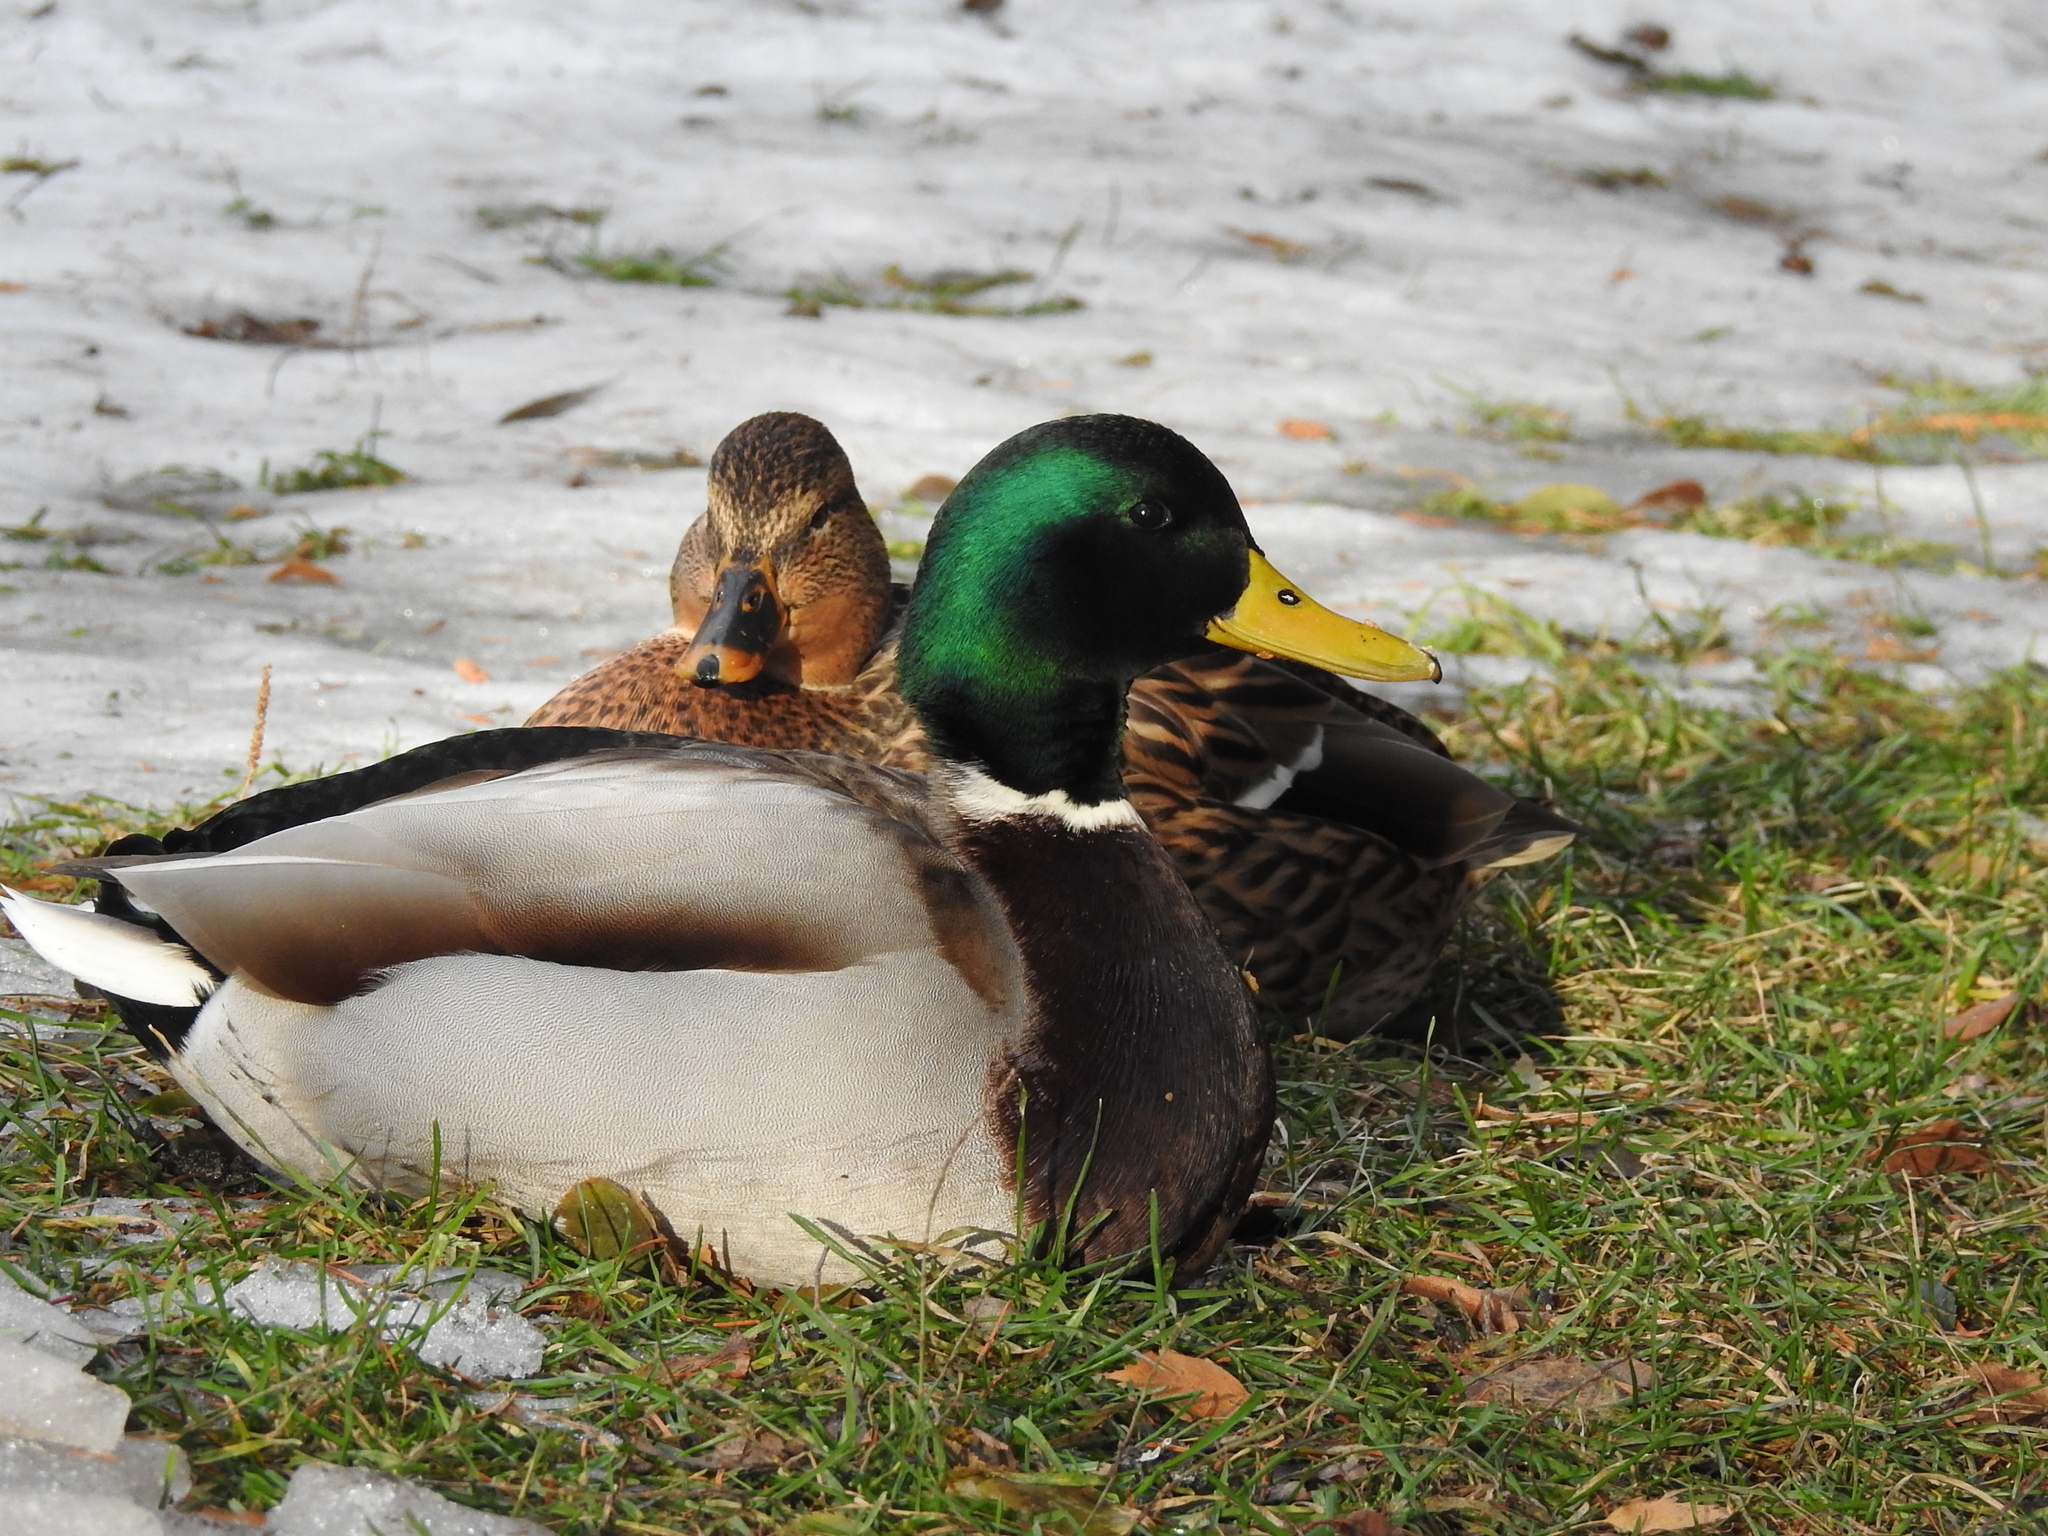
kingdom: Animalia
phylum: Chordata
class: Aves
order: Anseriformes
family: Anatidae
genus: Anas
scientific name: Anas platyrhynchos
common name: Mallard
